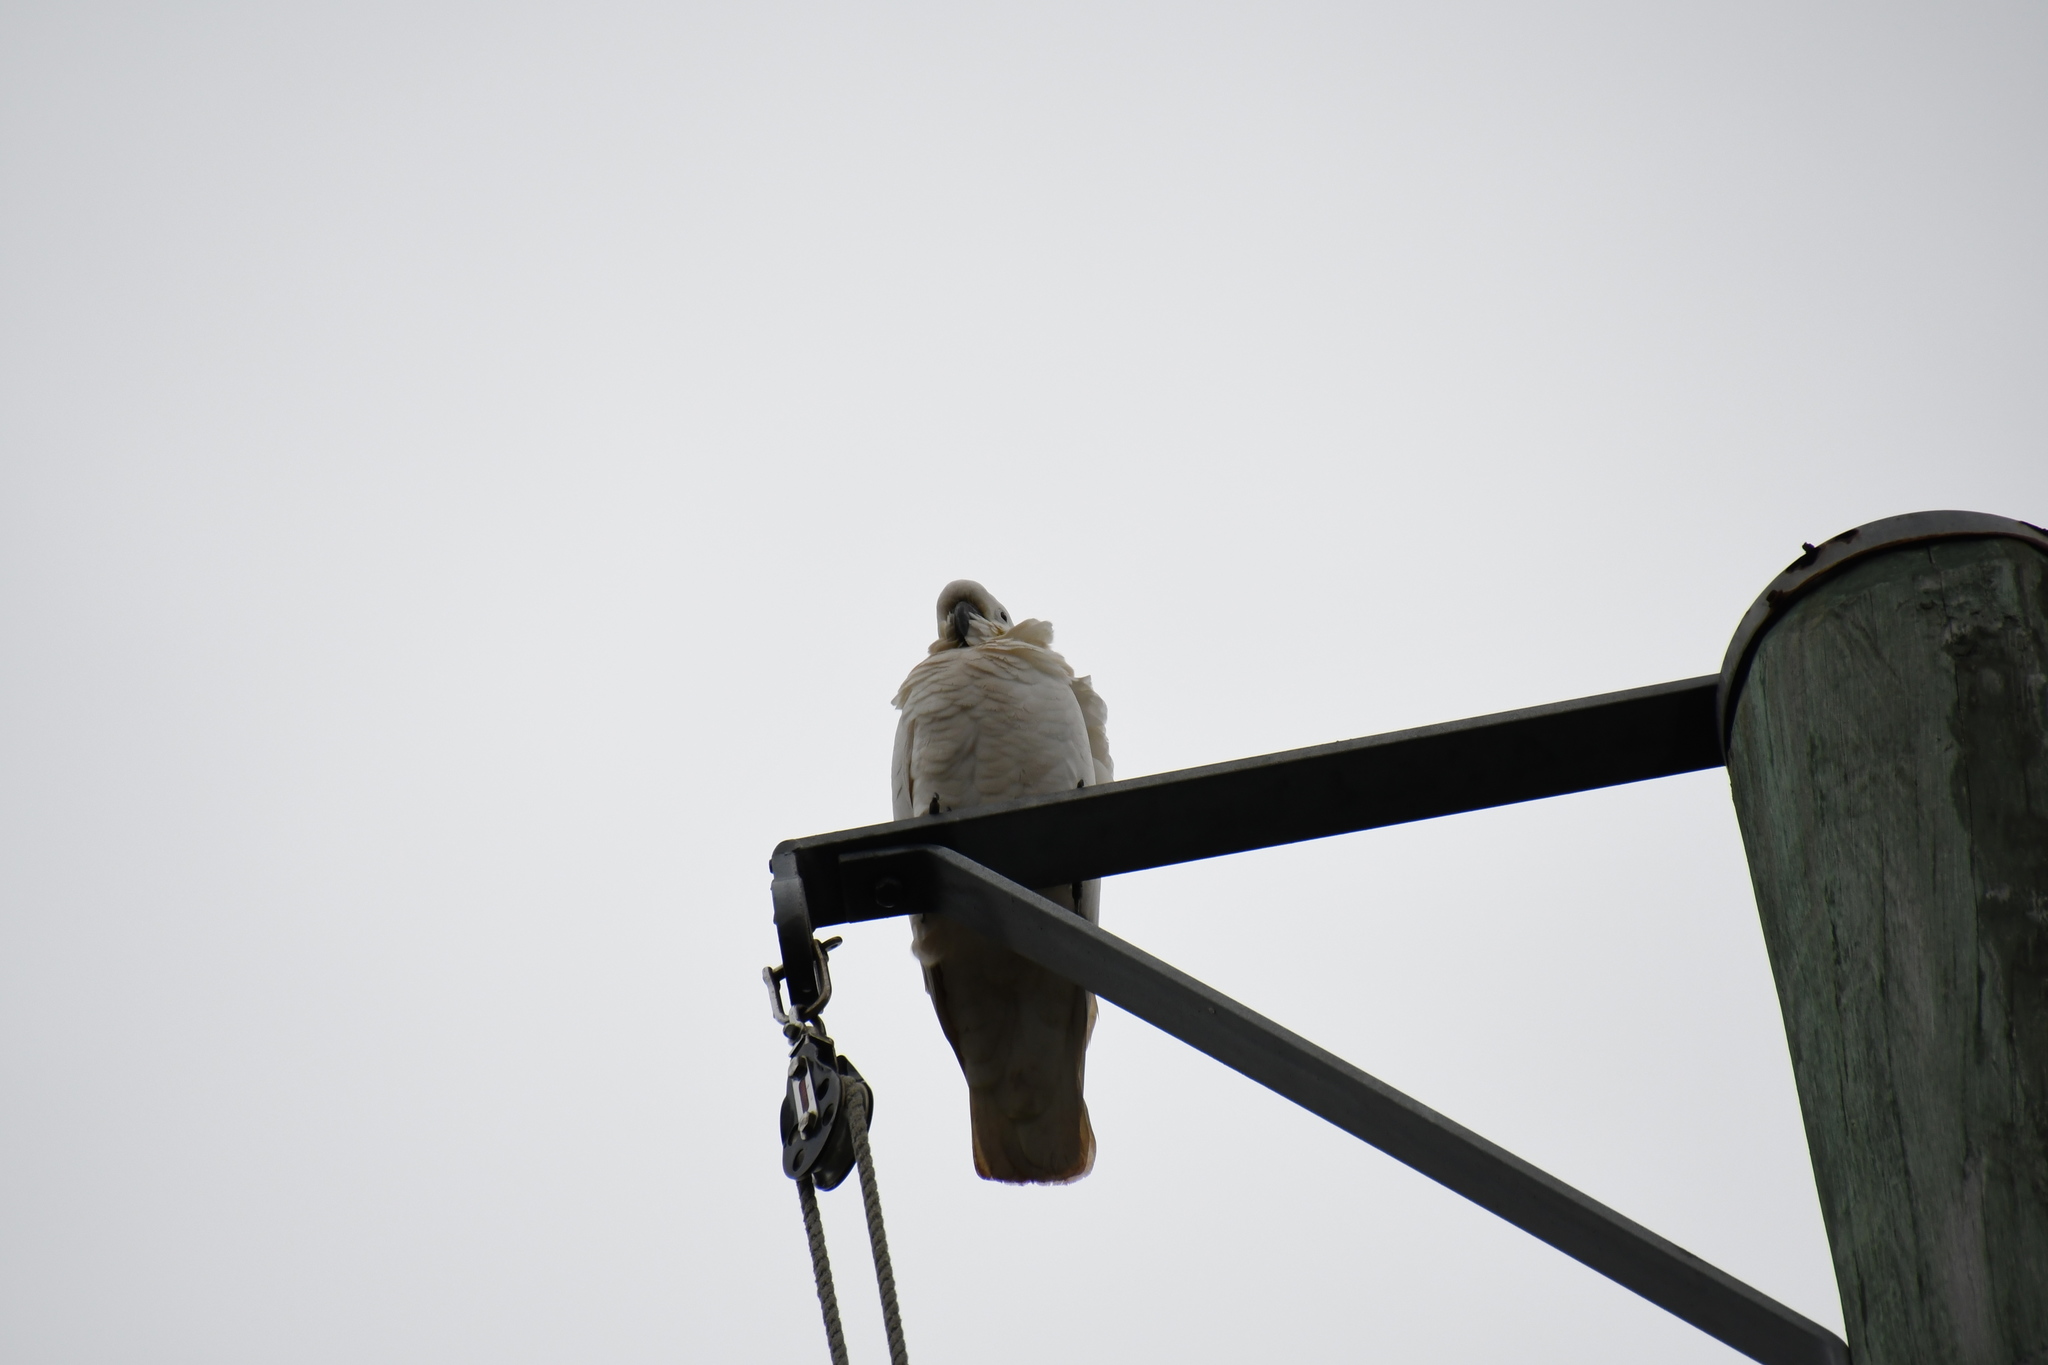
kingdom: Animalia
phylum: Chordata
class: Aves
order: Psittaciformes
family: Psittacidae
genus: Cacatua
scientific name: Cacatua galerita
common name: Sulphur-crested cockatoo
